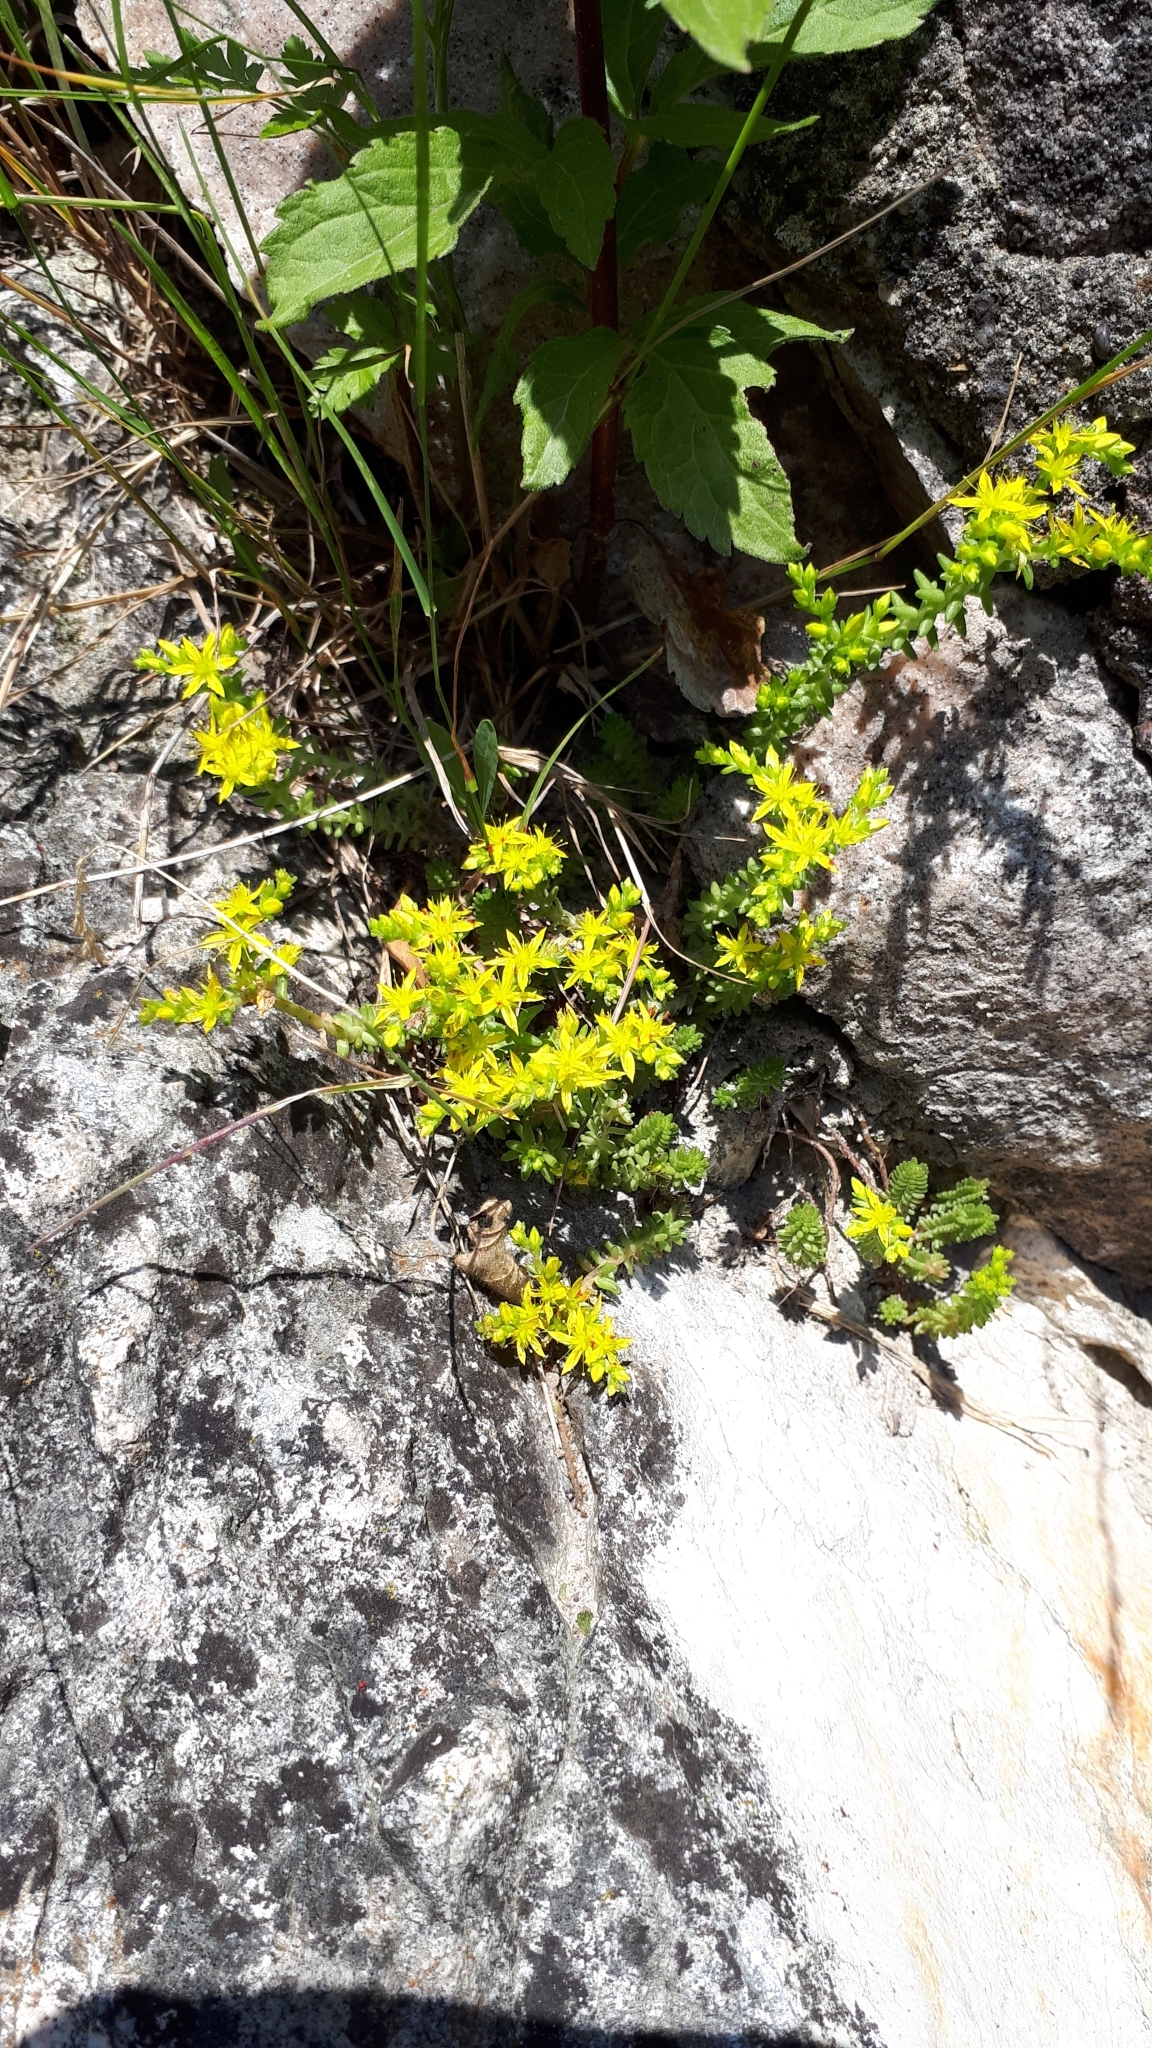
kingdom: Plantae
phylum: Tracheophyta
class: Magnoliopsida
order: Saxifragales
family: Crassulaceae
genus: Sedum
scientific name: Sedum sexangulare
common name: Tasteless stonecrop
